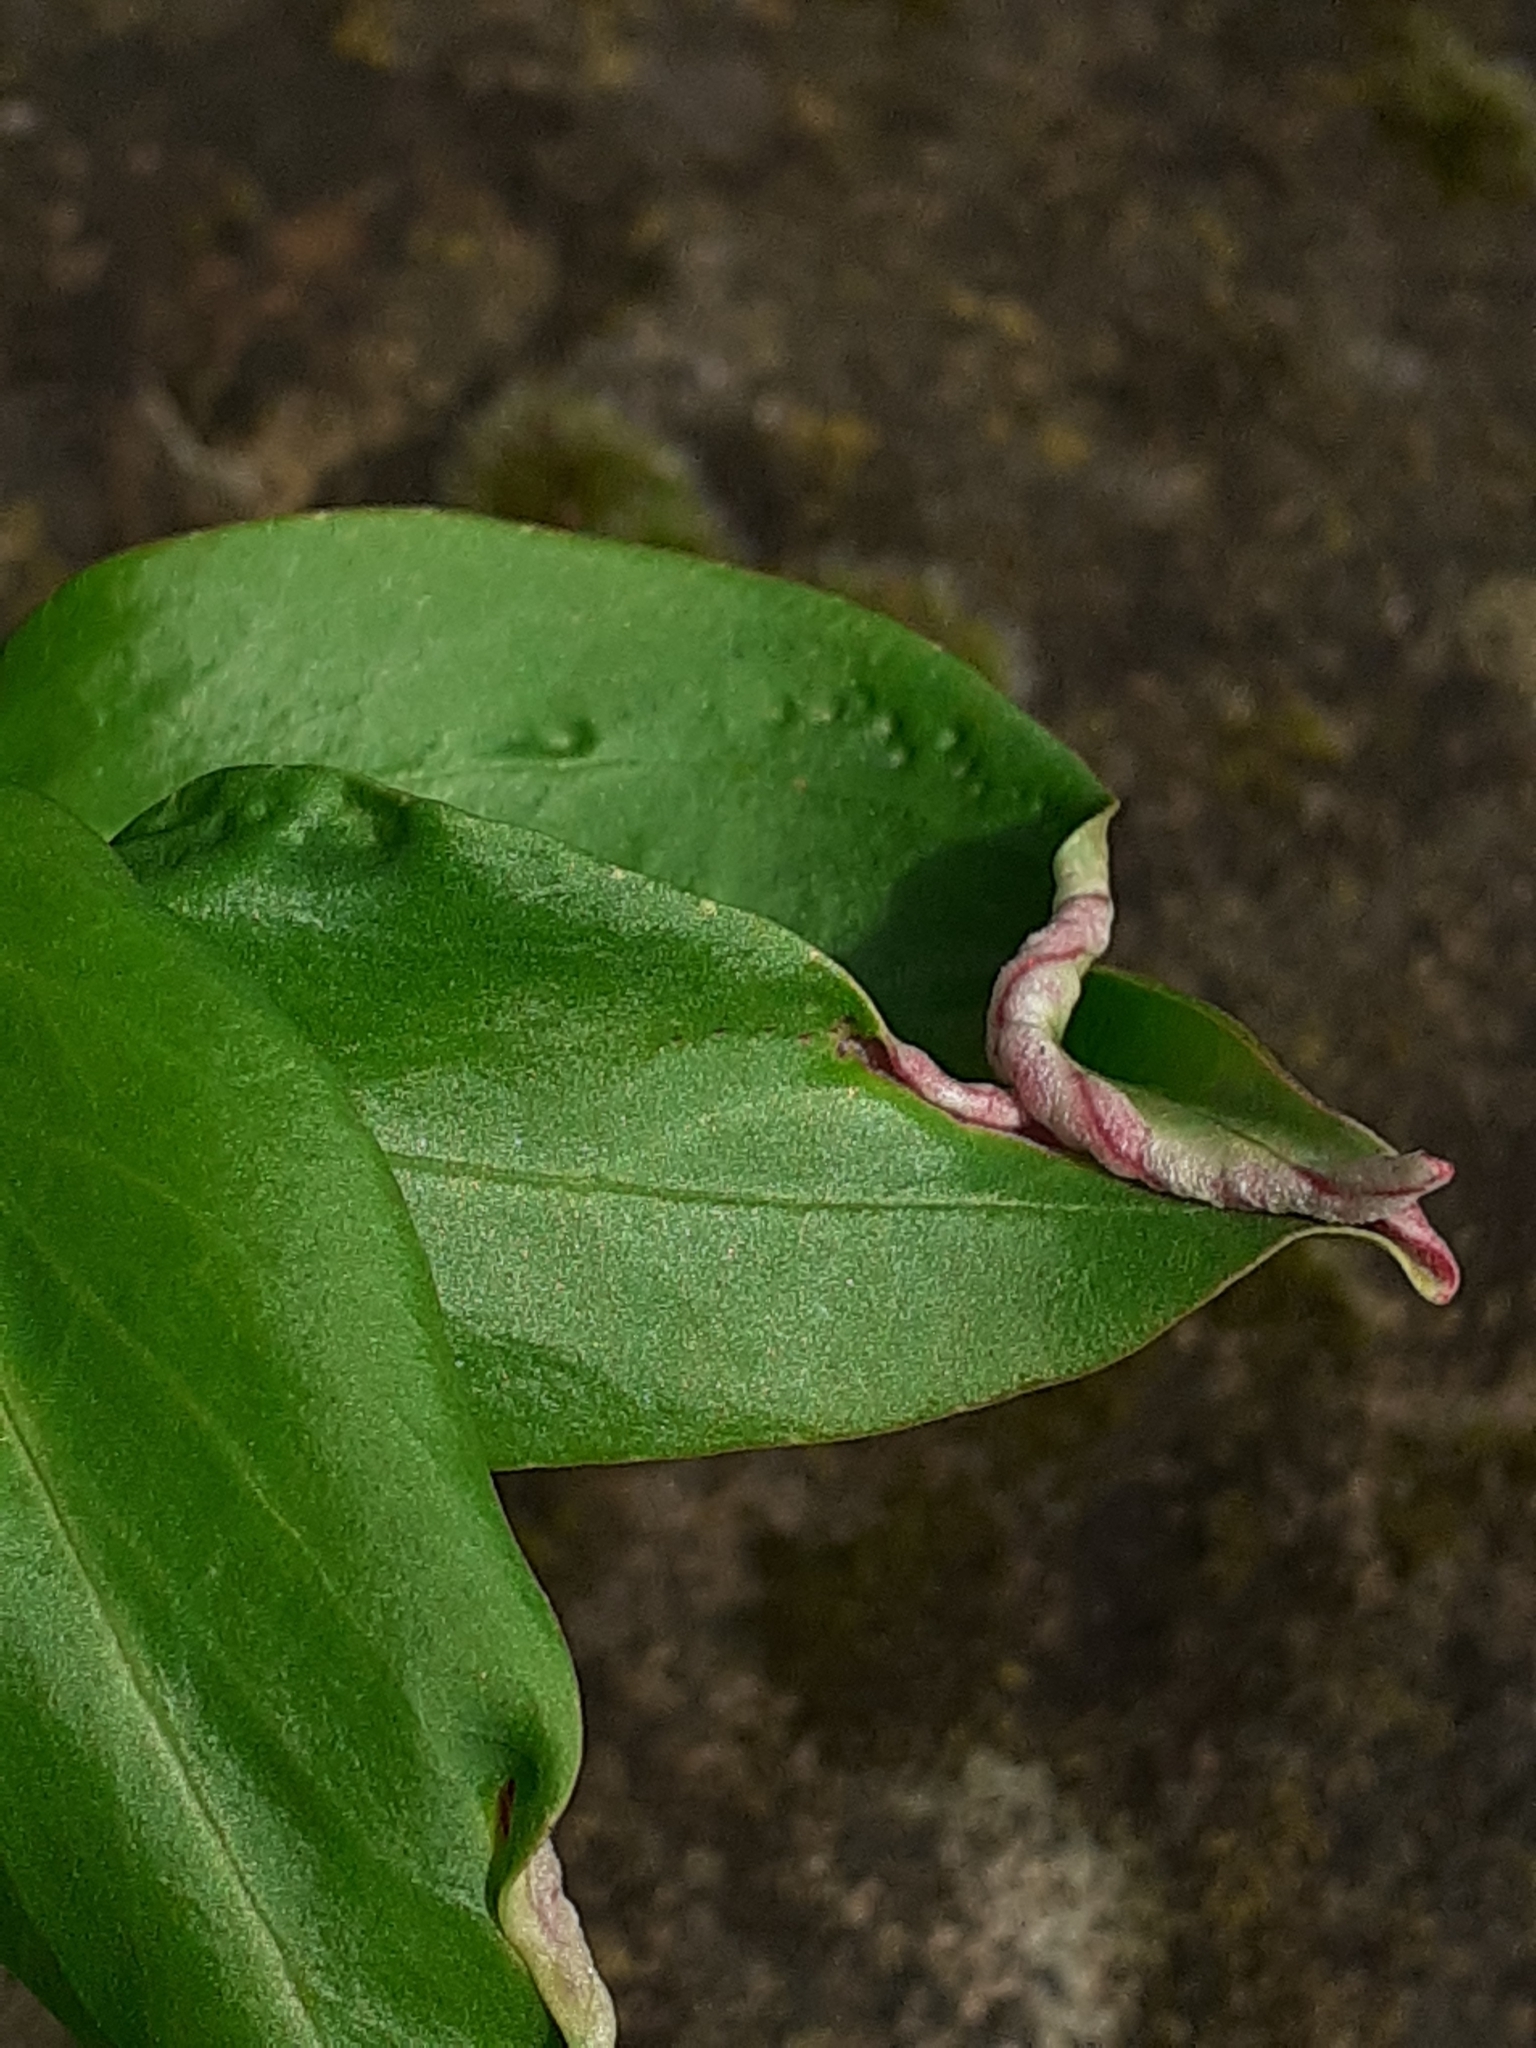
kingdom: Animalia
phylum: Arthropoda
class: Insecta
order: Hemiptera
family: Triozidae
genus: Trioza
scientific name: Trioza centranthi
